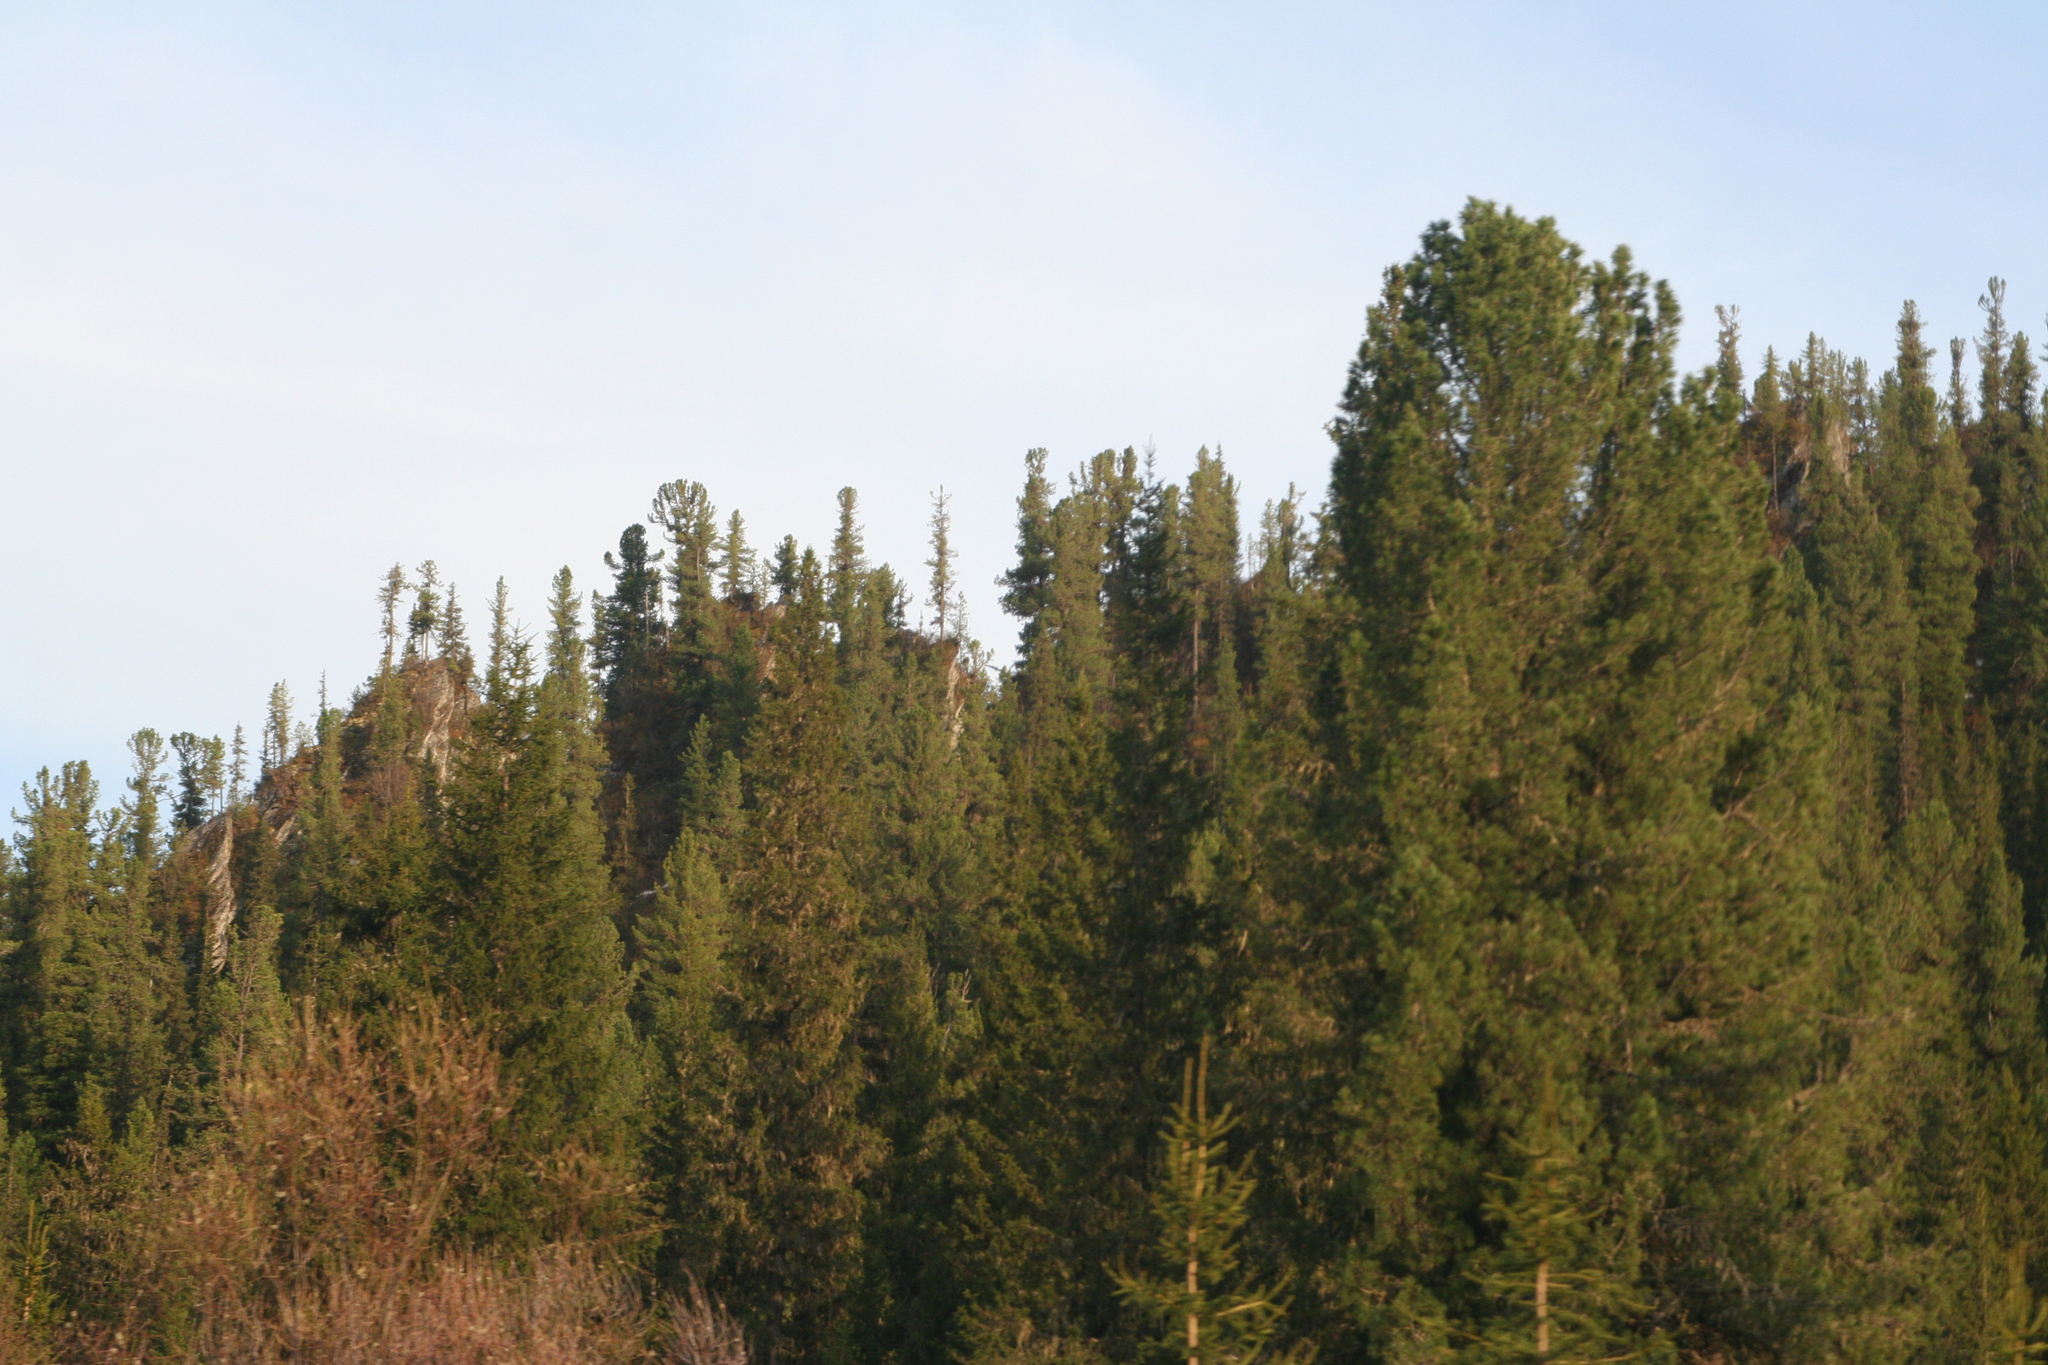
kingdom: Plantae
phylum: Tracheophyta
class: Pinopsida
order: Pinales
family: Pinaceae
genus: Pinus
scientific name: Pinus sibirica
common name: Siberian pine
